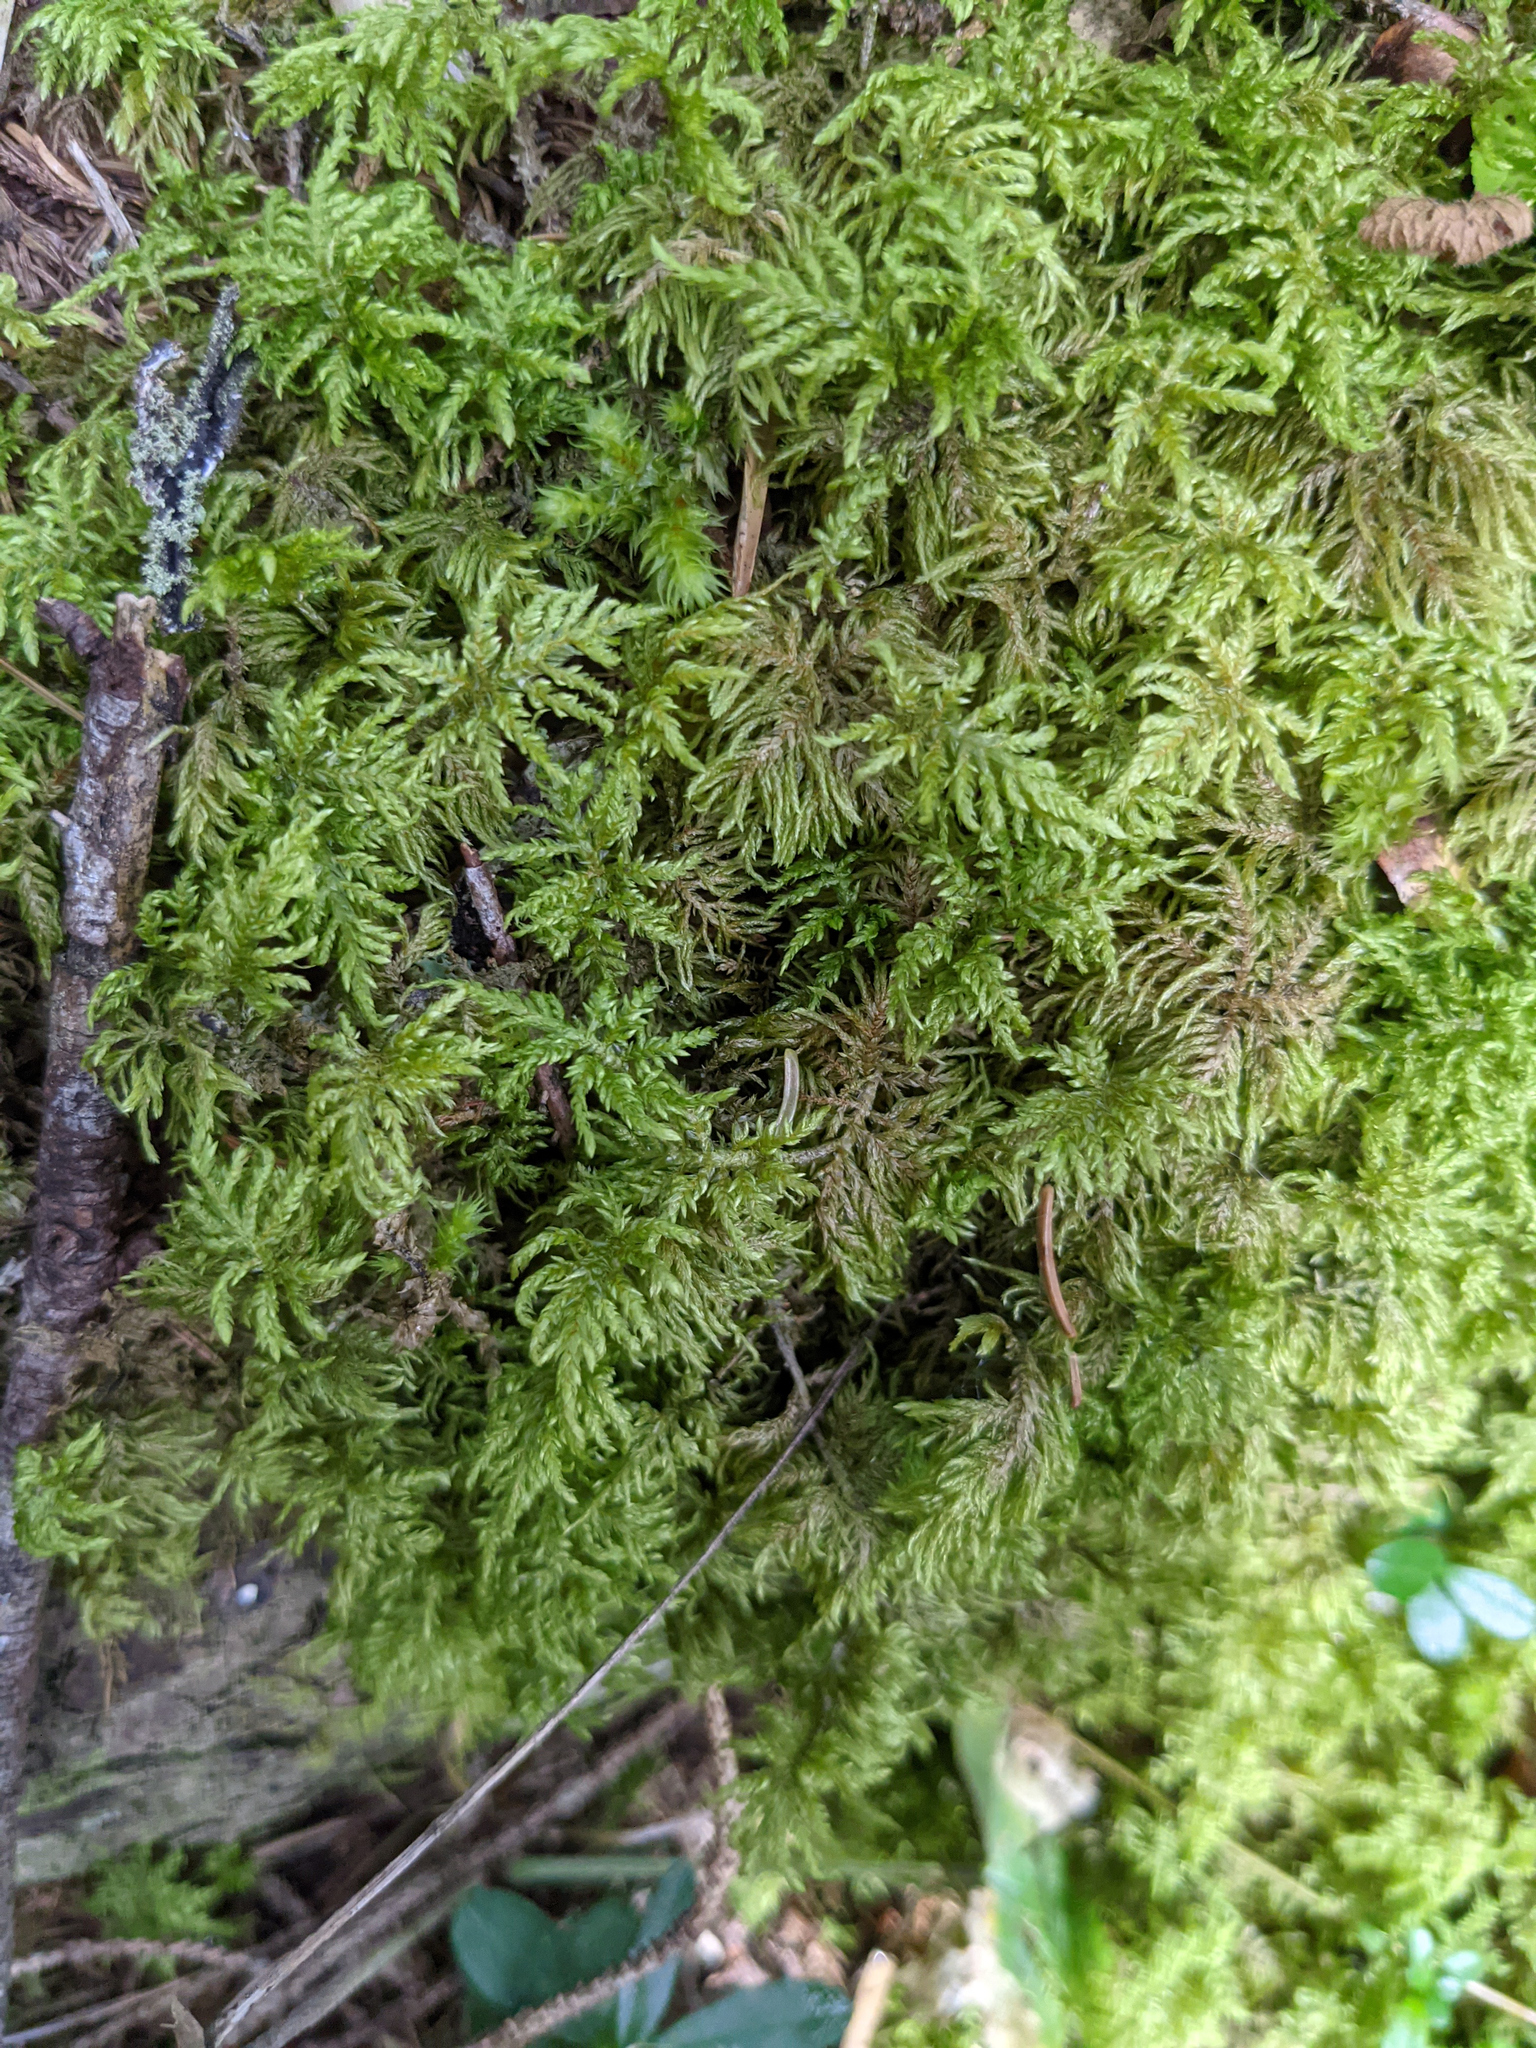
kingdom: Plantae
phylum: Bryophyta
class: Bryopsida
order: Hypnales
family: Hylocomiaceae
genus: Hylocomium
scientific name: Hylocomium splendens
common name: Stairstep moss
